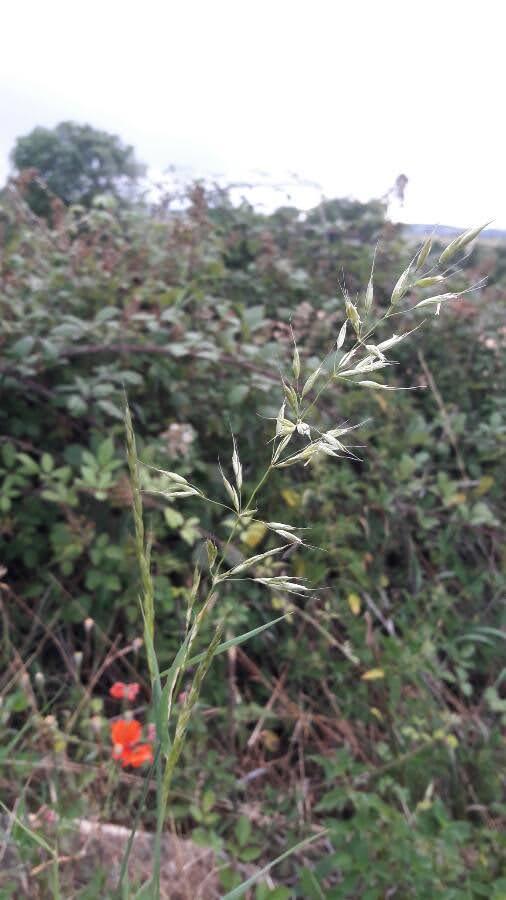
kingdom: Plantae
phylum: Tracheophyta
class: Liliopsida
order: Poales
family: Poaceae
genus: Arrhenatherum
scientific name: Arrhenatherum elatius
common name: Tall oatgrass
